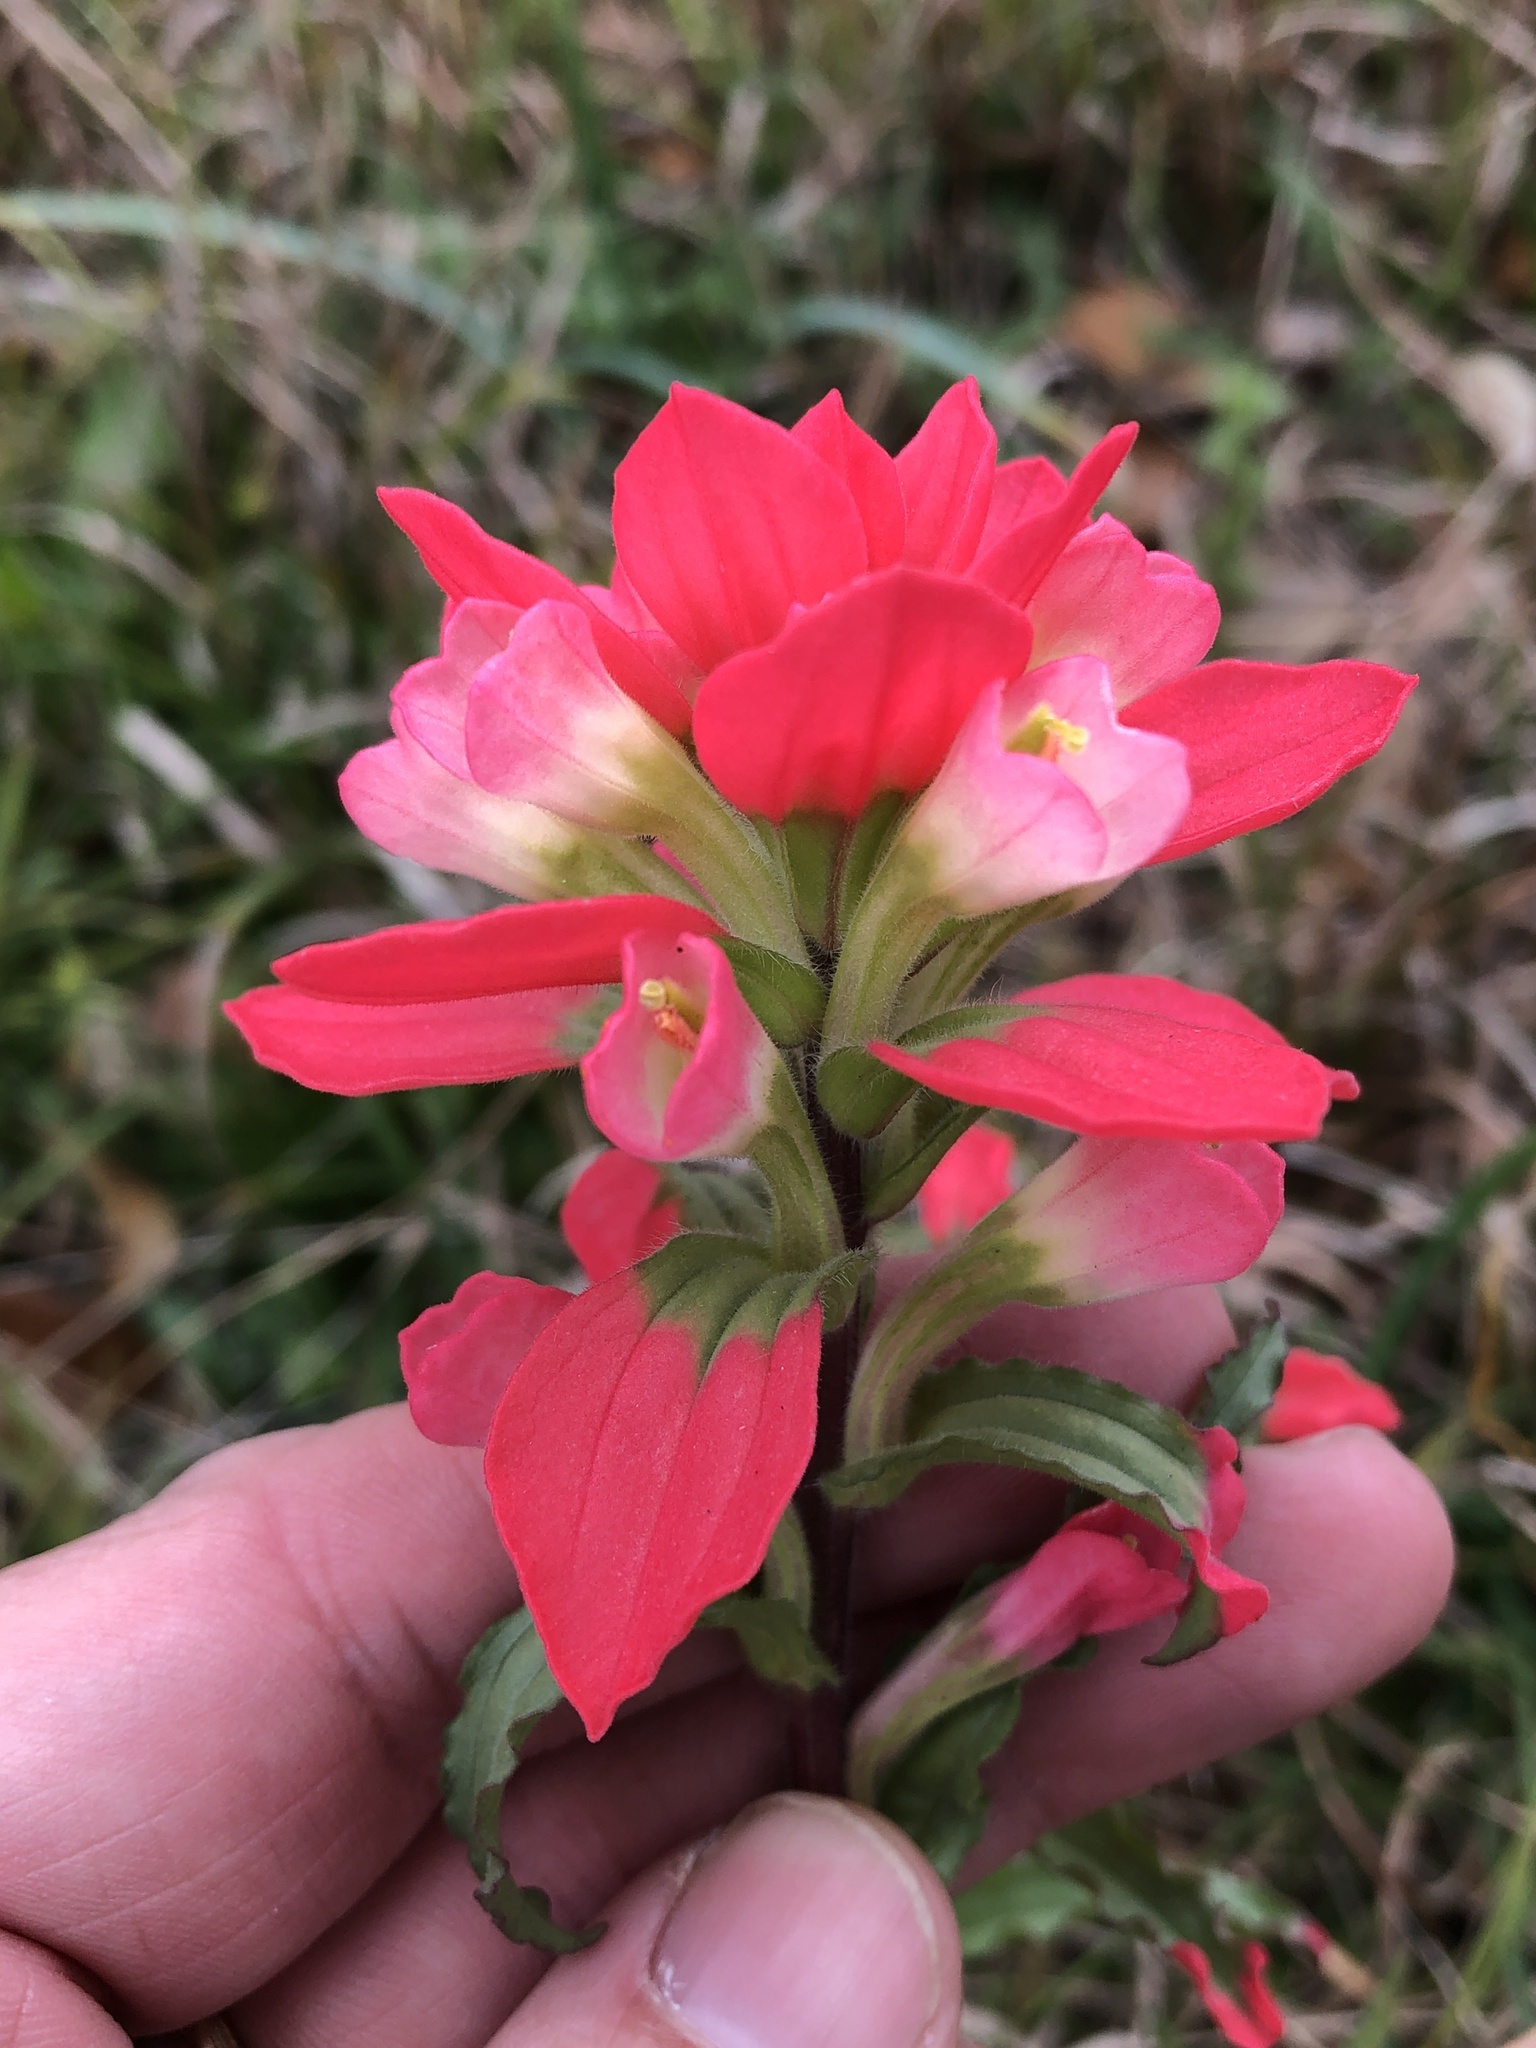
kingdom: Plantae
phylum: Tracheophyta
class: Magnoliopsida
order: Lamiales
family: Orobanchaceae
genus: Castilleja
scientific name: Castilleja indivisa
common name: Texas paintbrush
